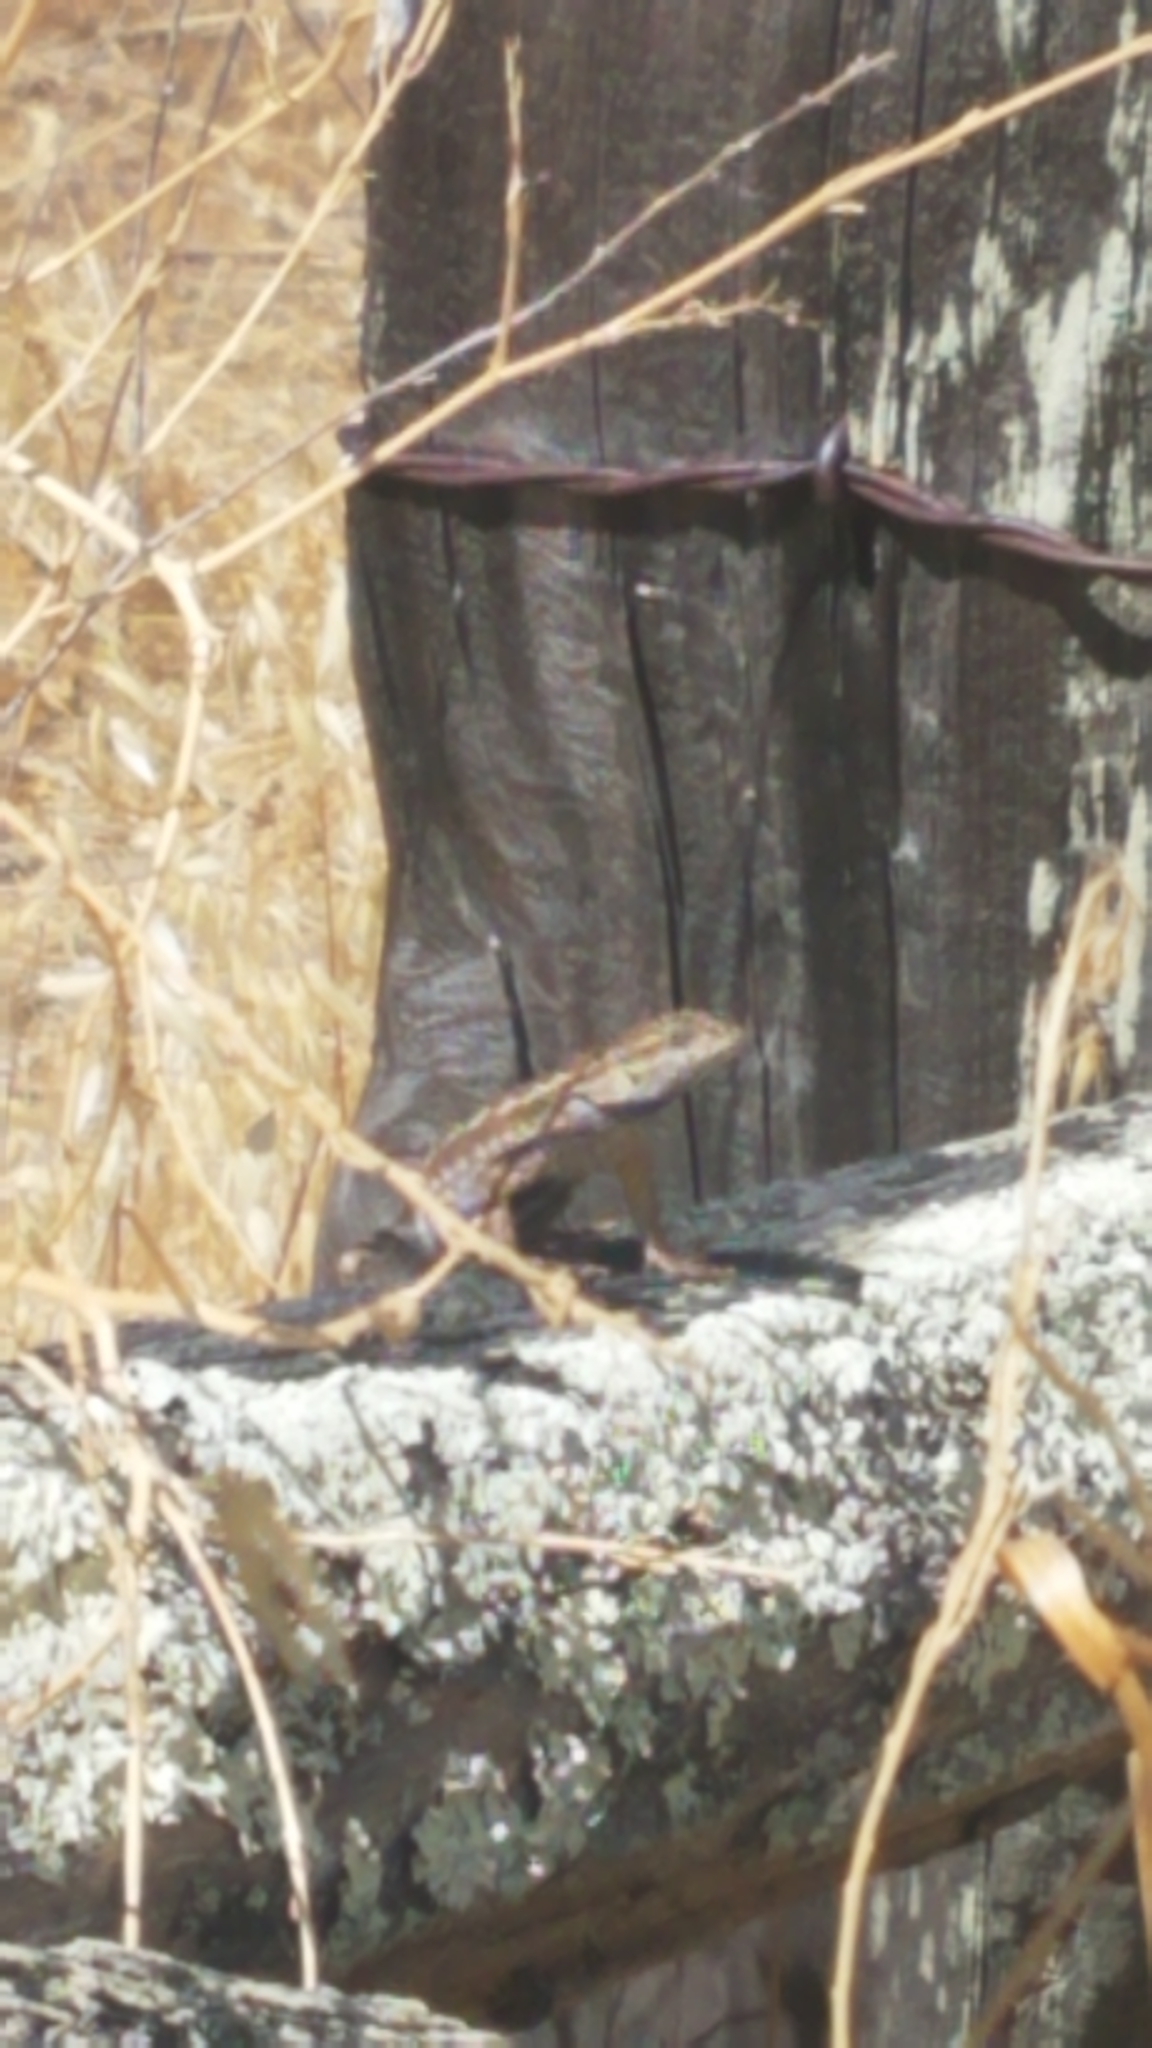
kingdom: Animalia
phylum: Chordata
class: Squamata
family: Phrynosomatidae
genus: Sceloporus
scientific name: Sceloporus occidentalis
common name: Western fence lizard
